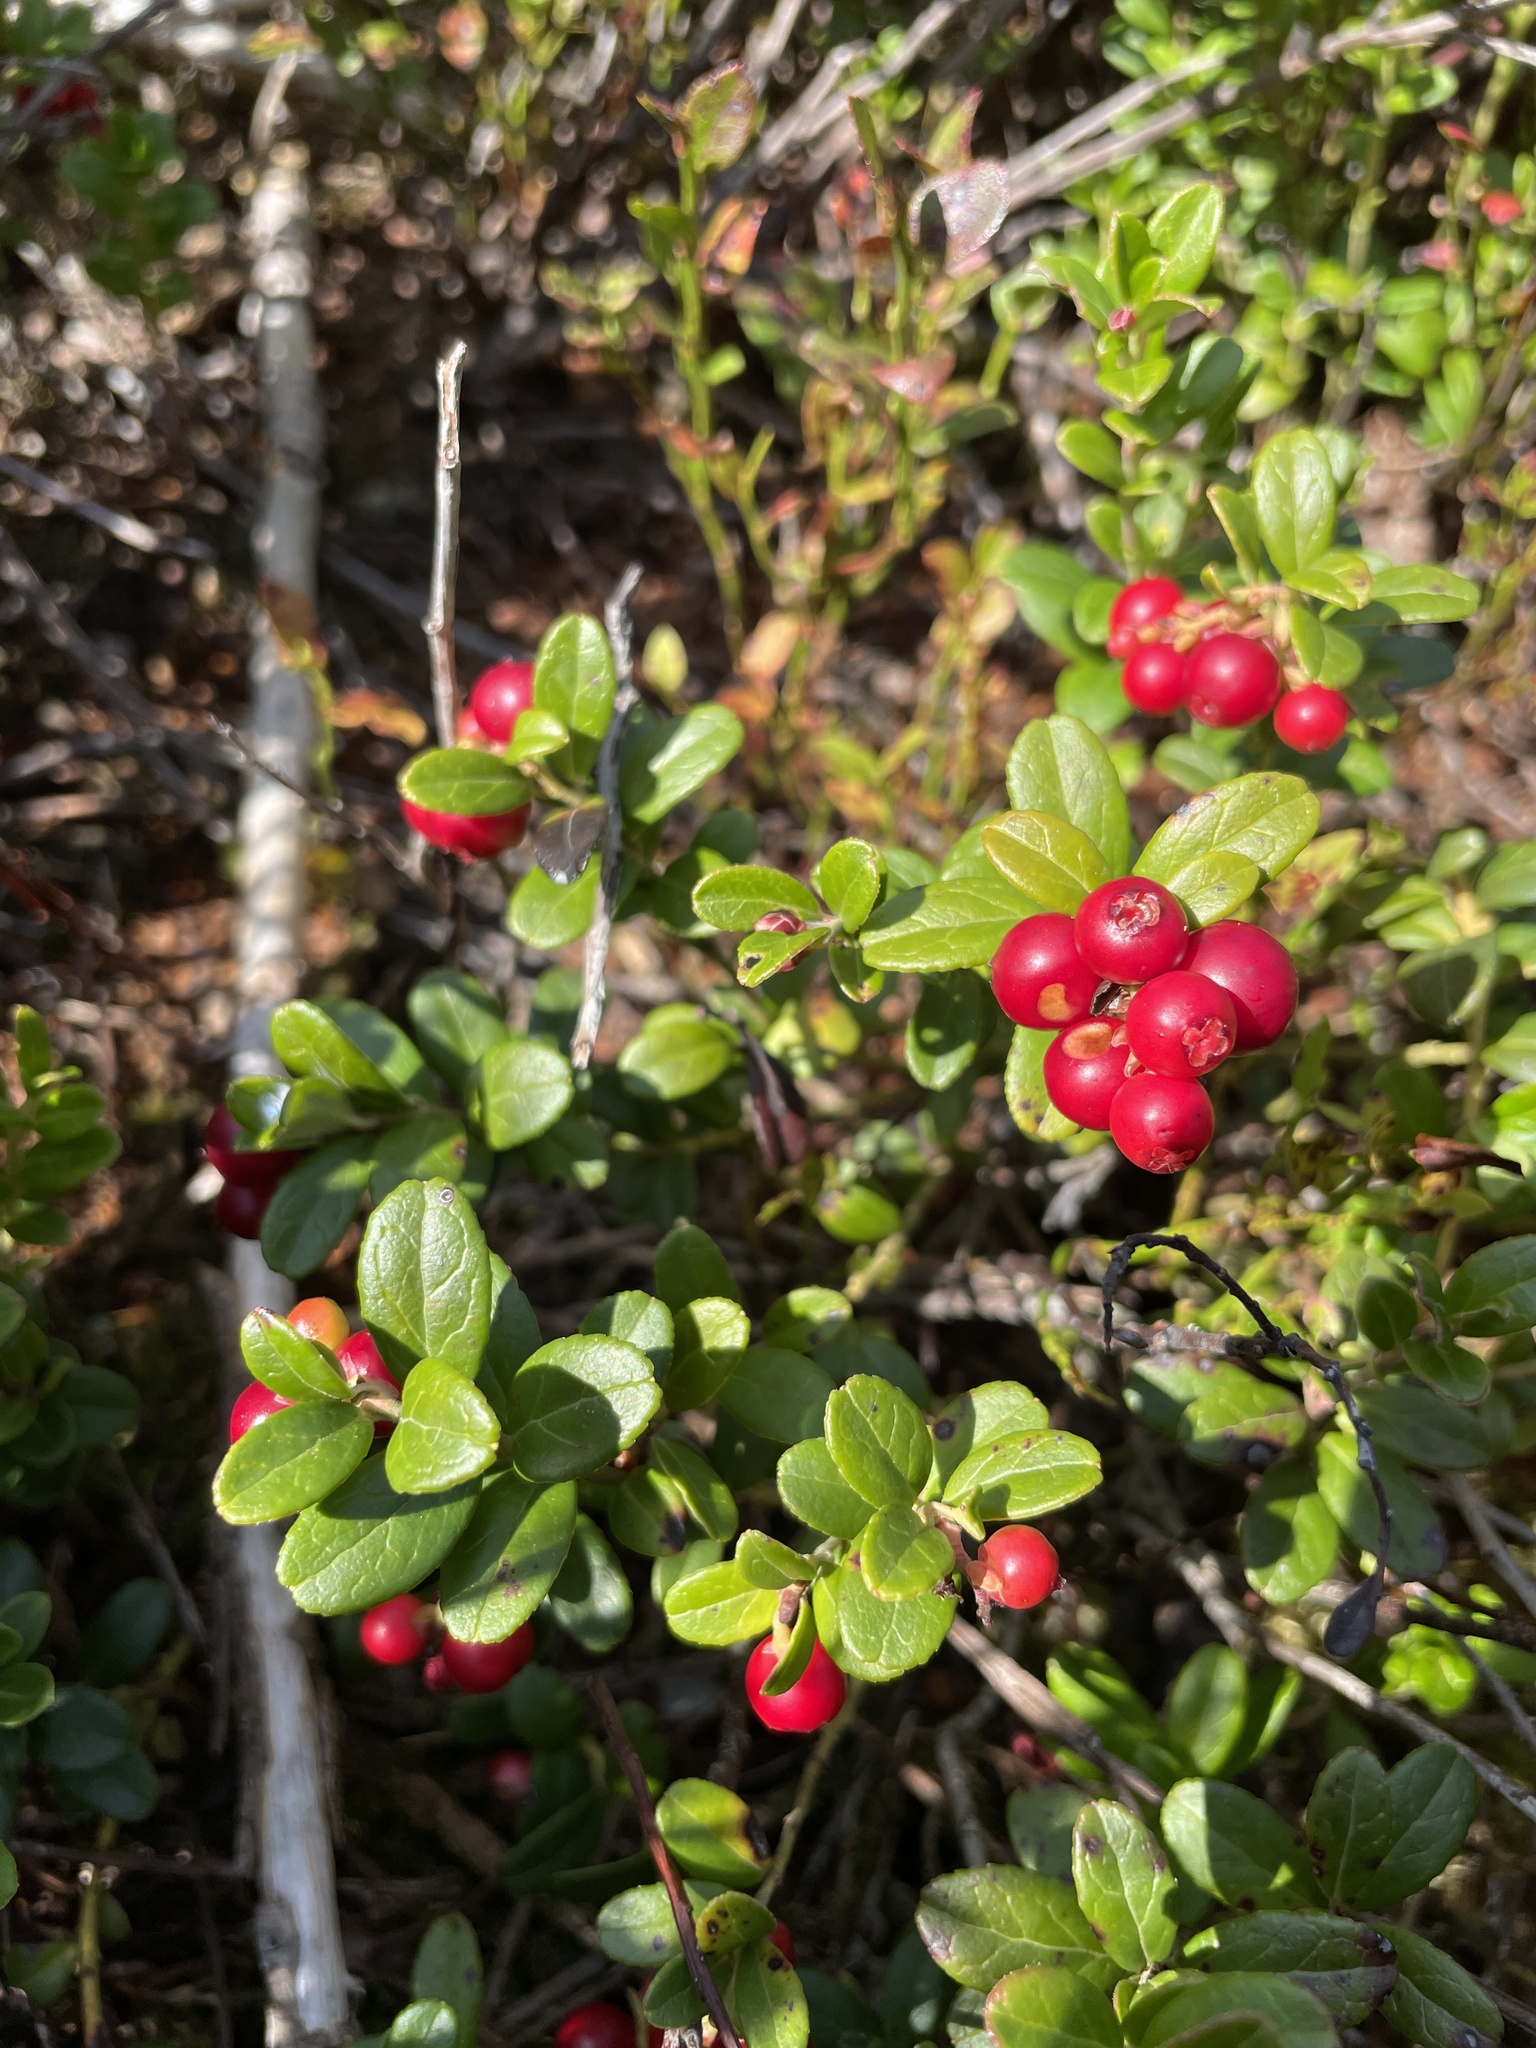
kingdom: Plantae
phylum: Tracheophyta
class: Magnoliopsida
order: Ericales
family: Ericaceae
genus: Vaccinium
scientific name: Vaccinium vitis-idaea
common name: Cowberry
